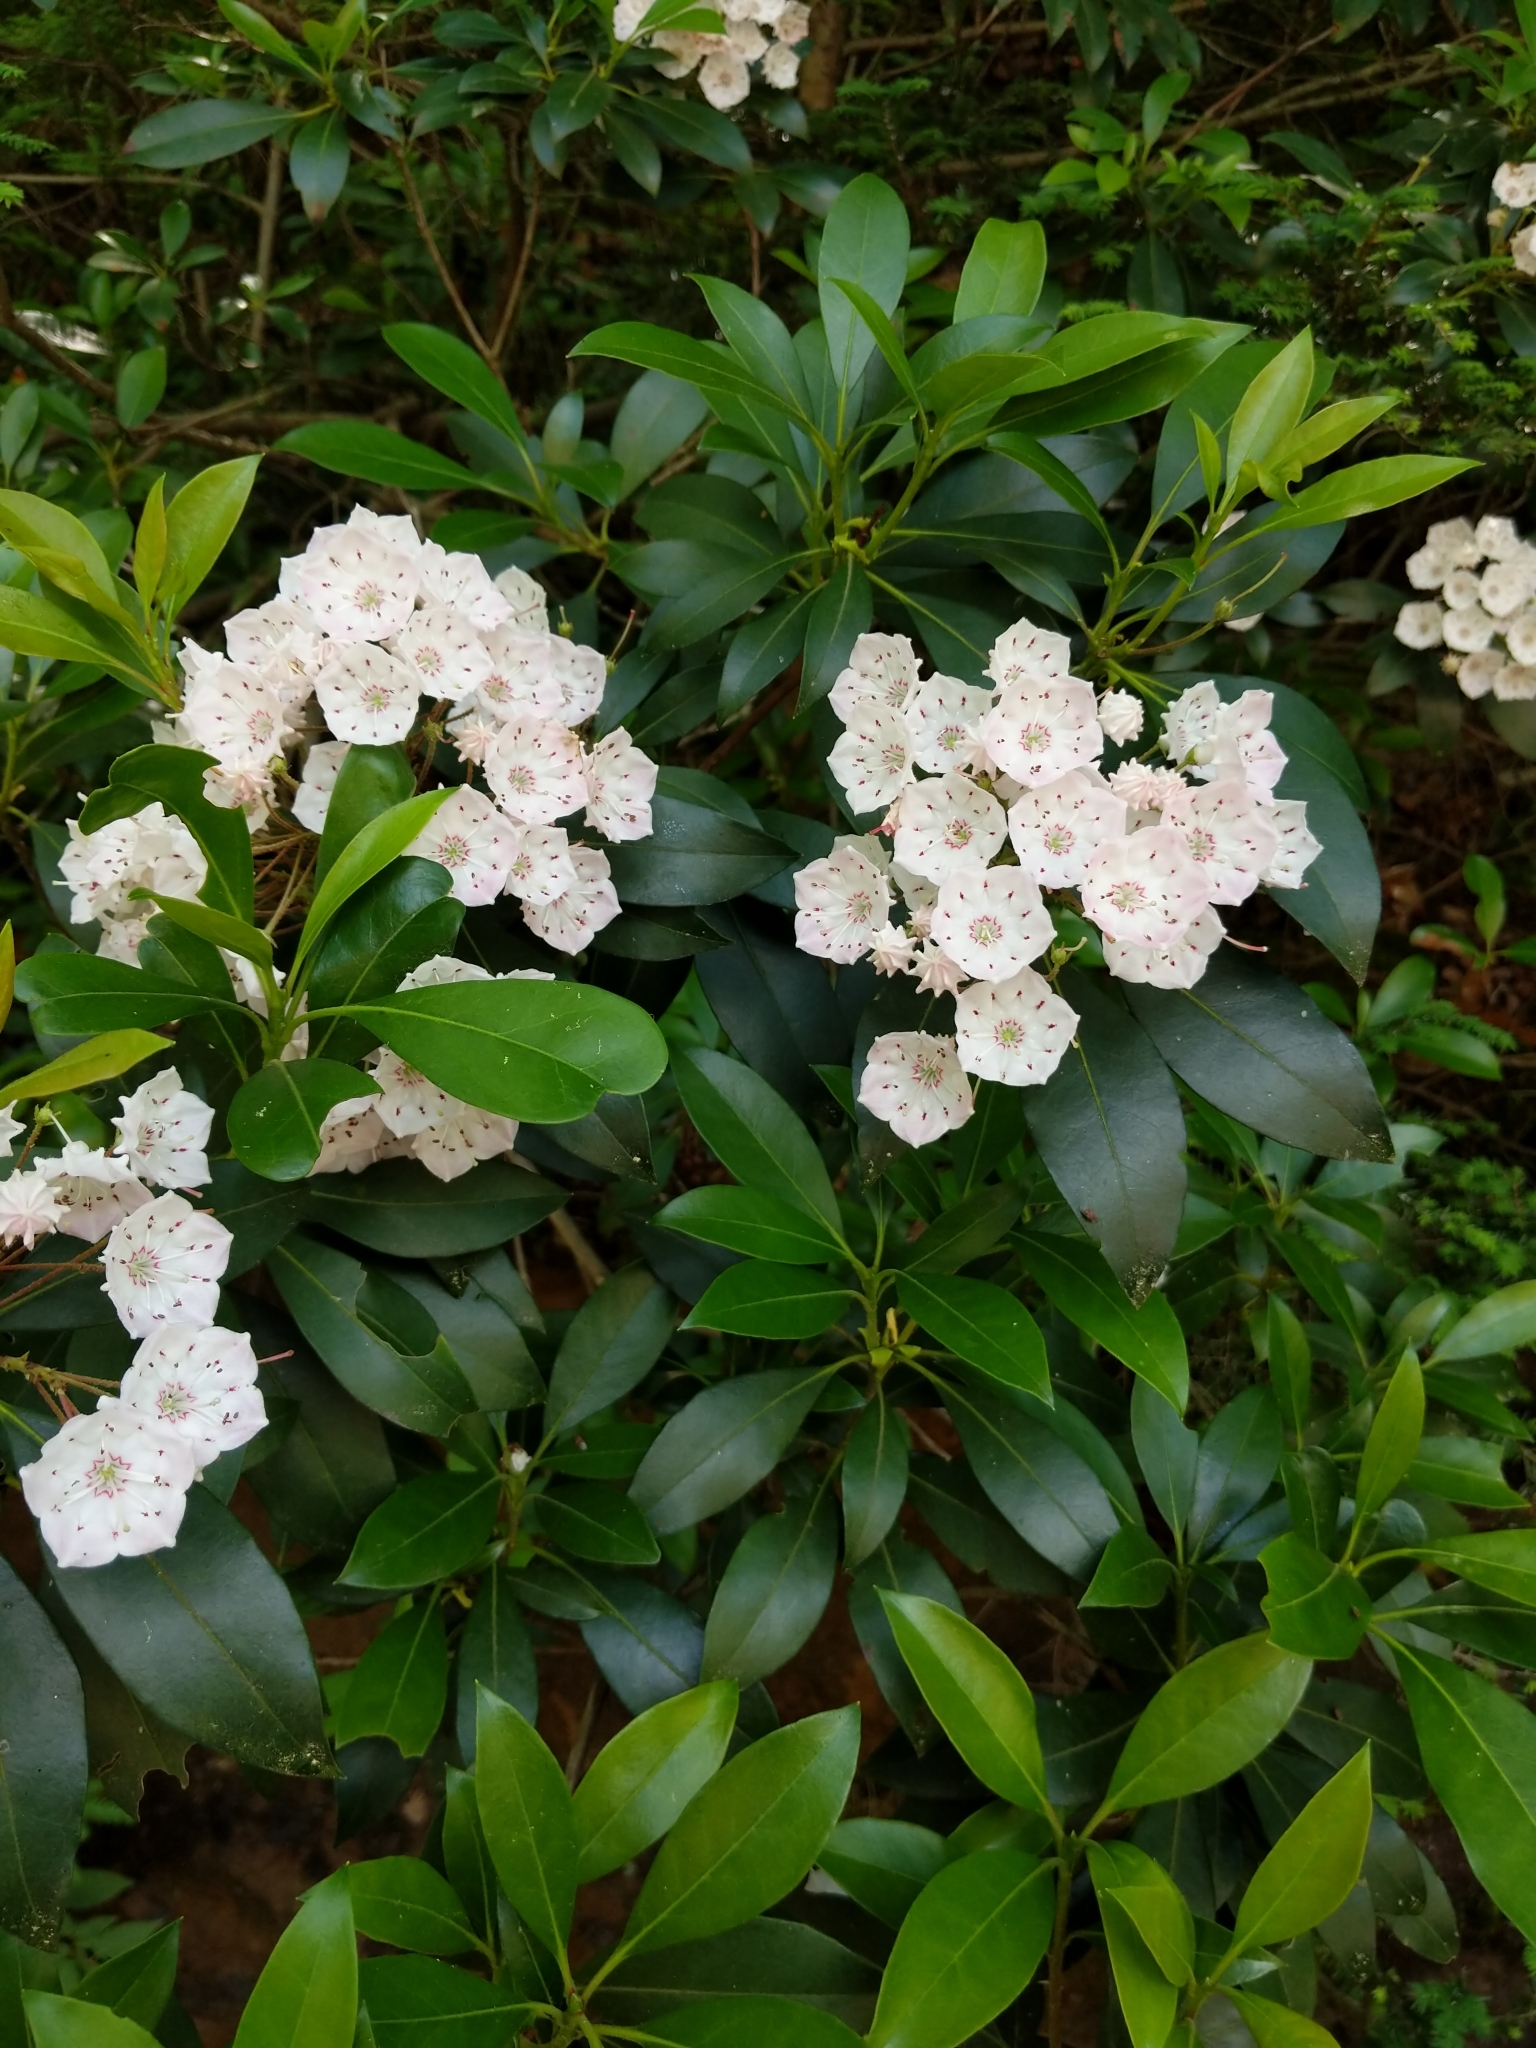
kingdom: Plantae
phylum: Tracheophyta
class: Magnoliopsida
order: Ericales
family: Ericaceae
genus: Kalmia
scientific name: Kalmia latifolia
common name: Mountain-laurel
